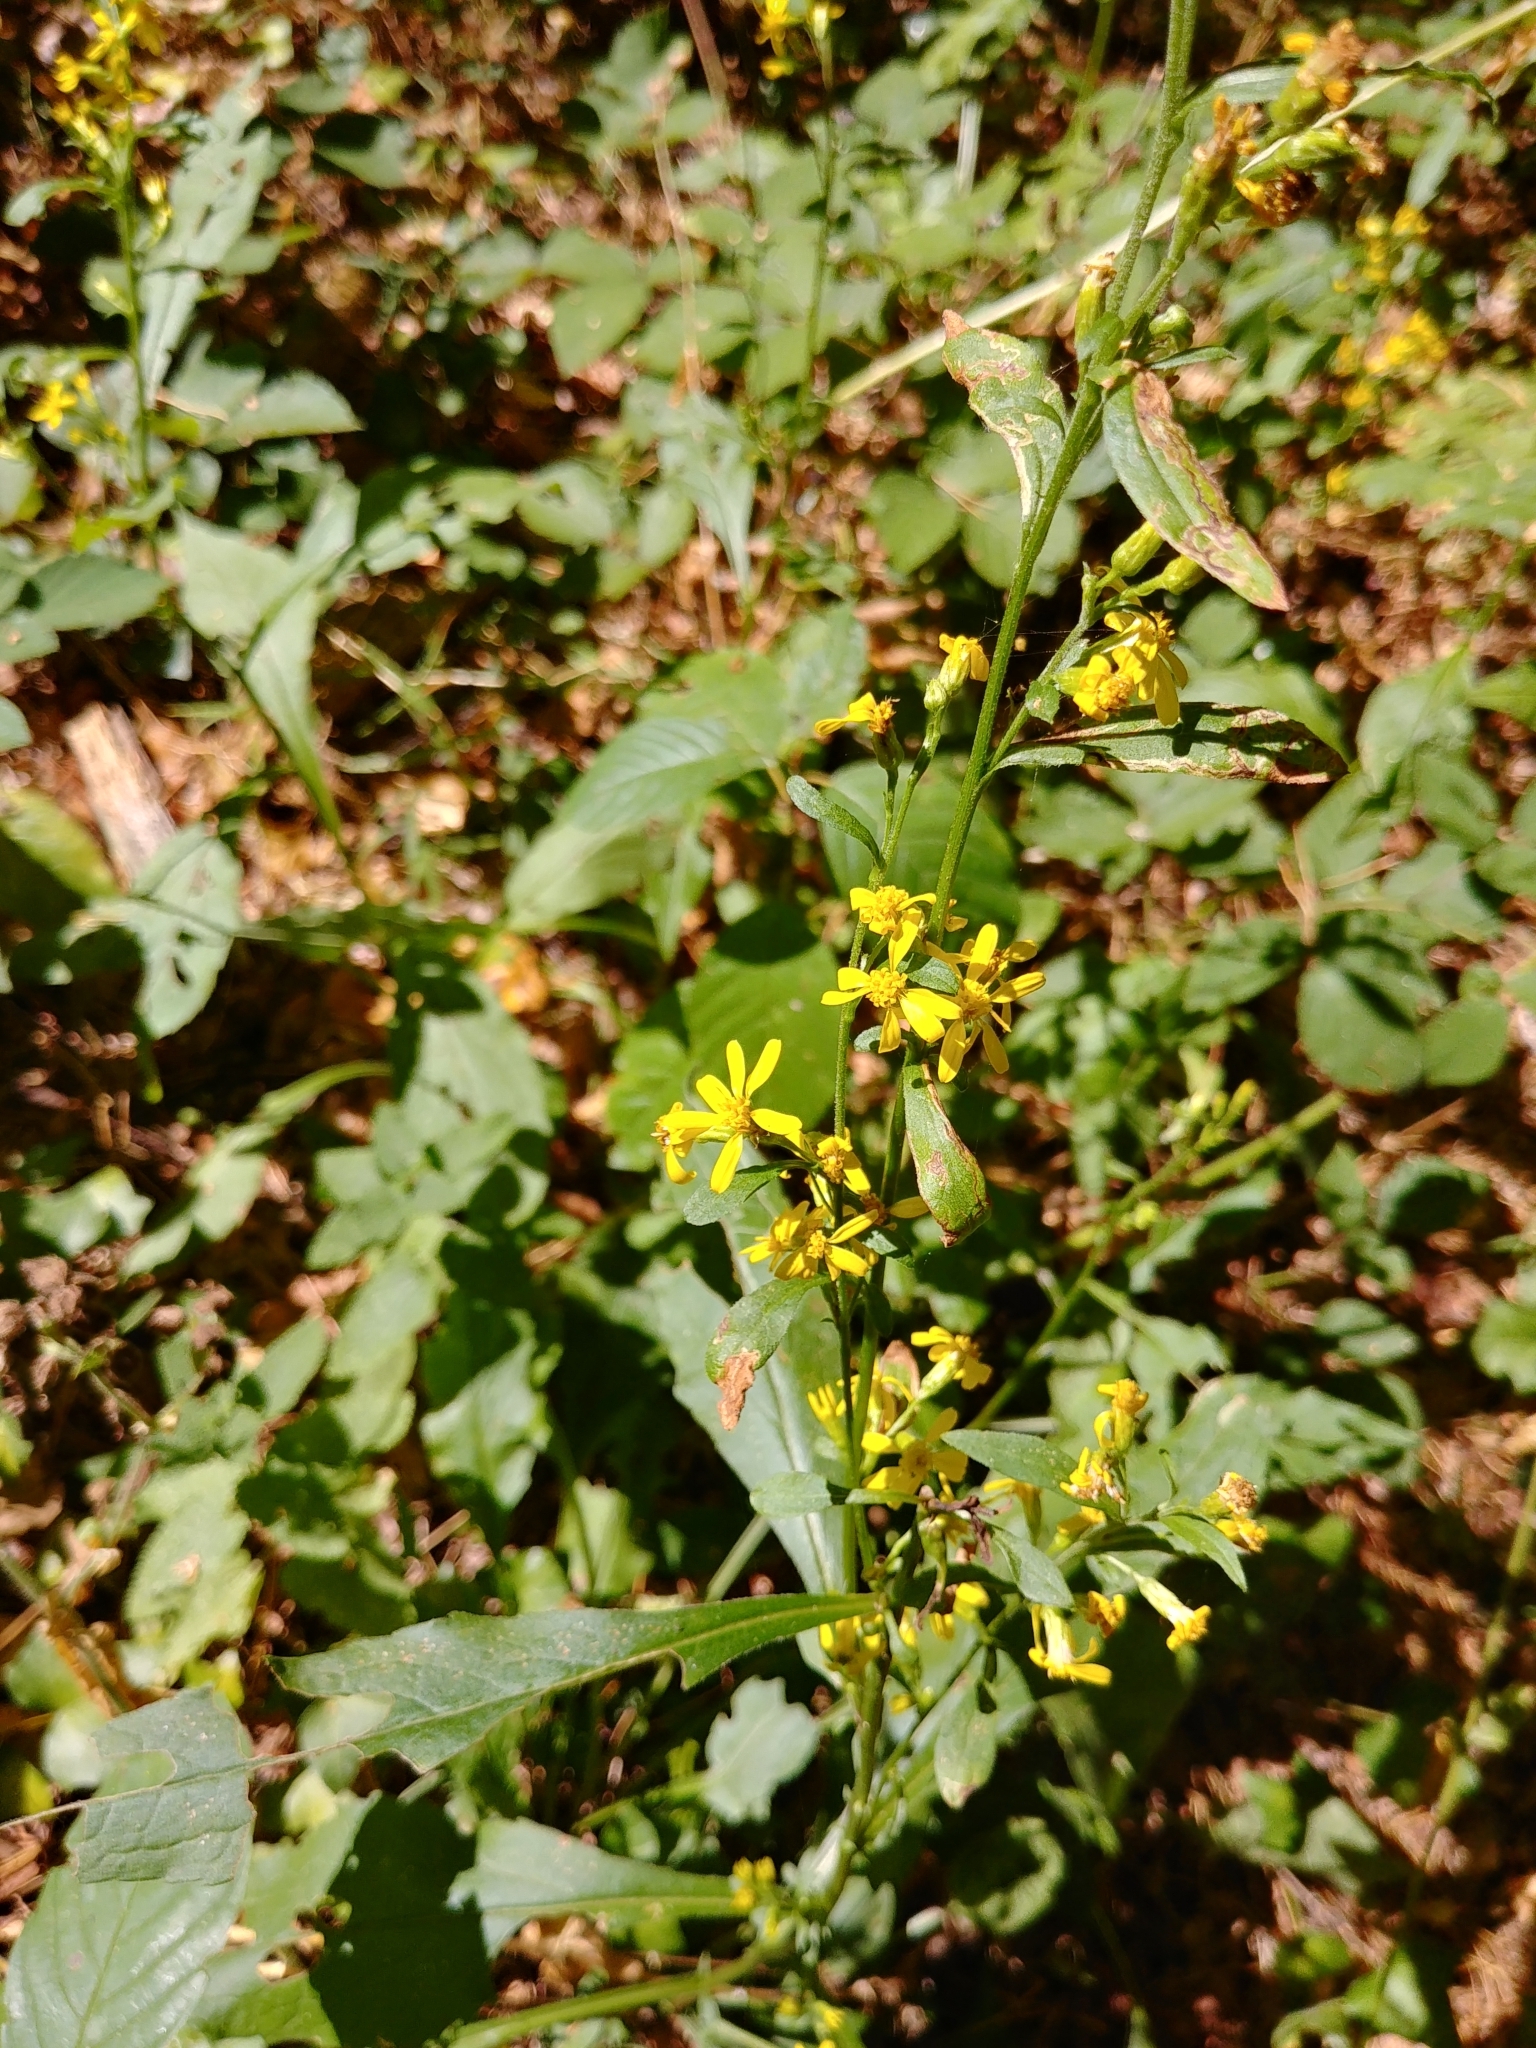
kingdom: Plantae
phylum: Tracheophyta
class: Magnoliopsida
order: Asterales
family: Asteraceae
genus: Solidago
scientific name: Solidago virgaurea
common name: Goldenrod
